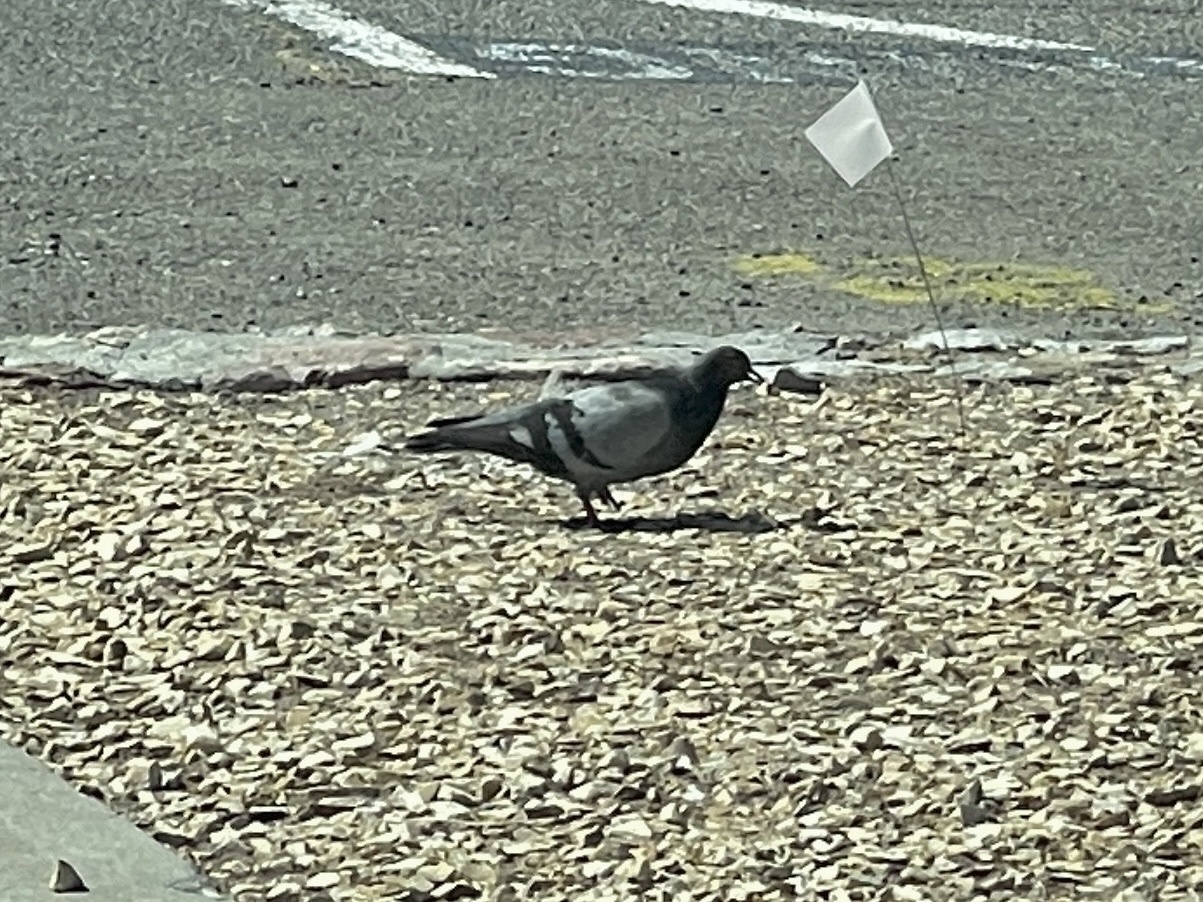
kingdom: Animalia
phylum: Chordata
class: Aves
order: Columbiformes
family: Columbidae
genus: Columba
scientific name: Columba livia
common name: Rock pigeon
